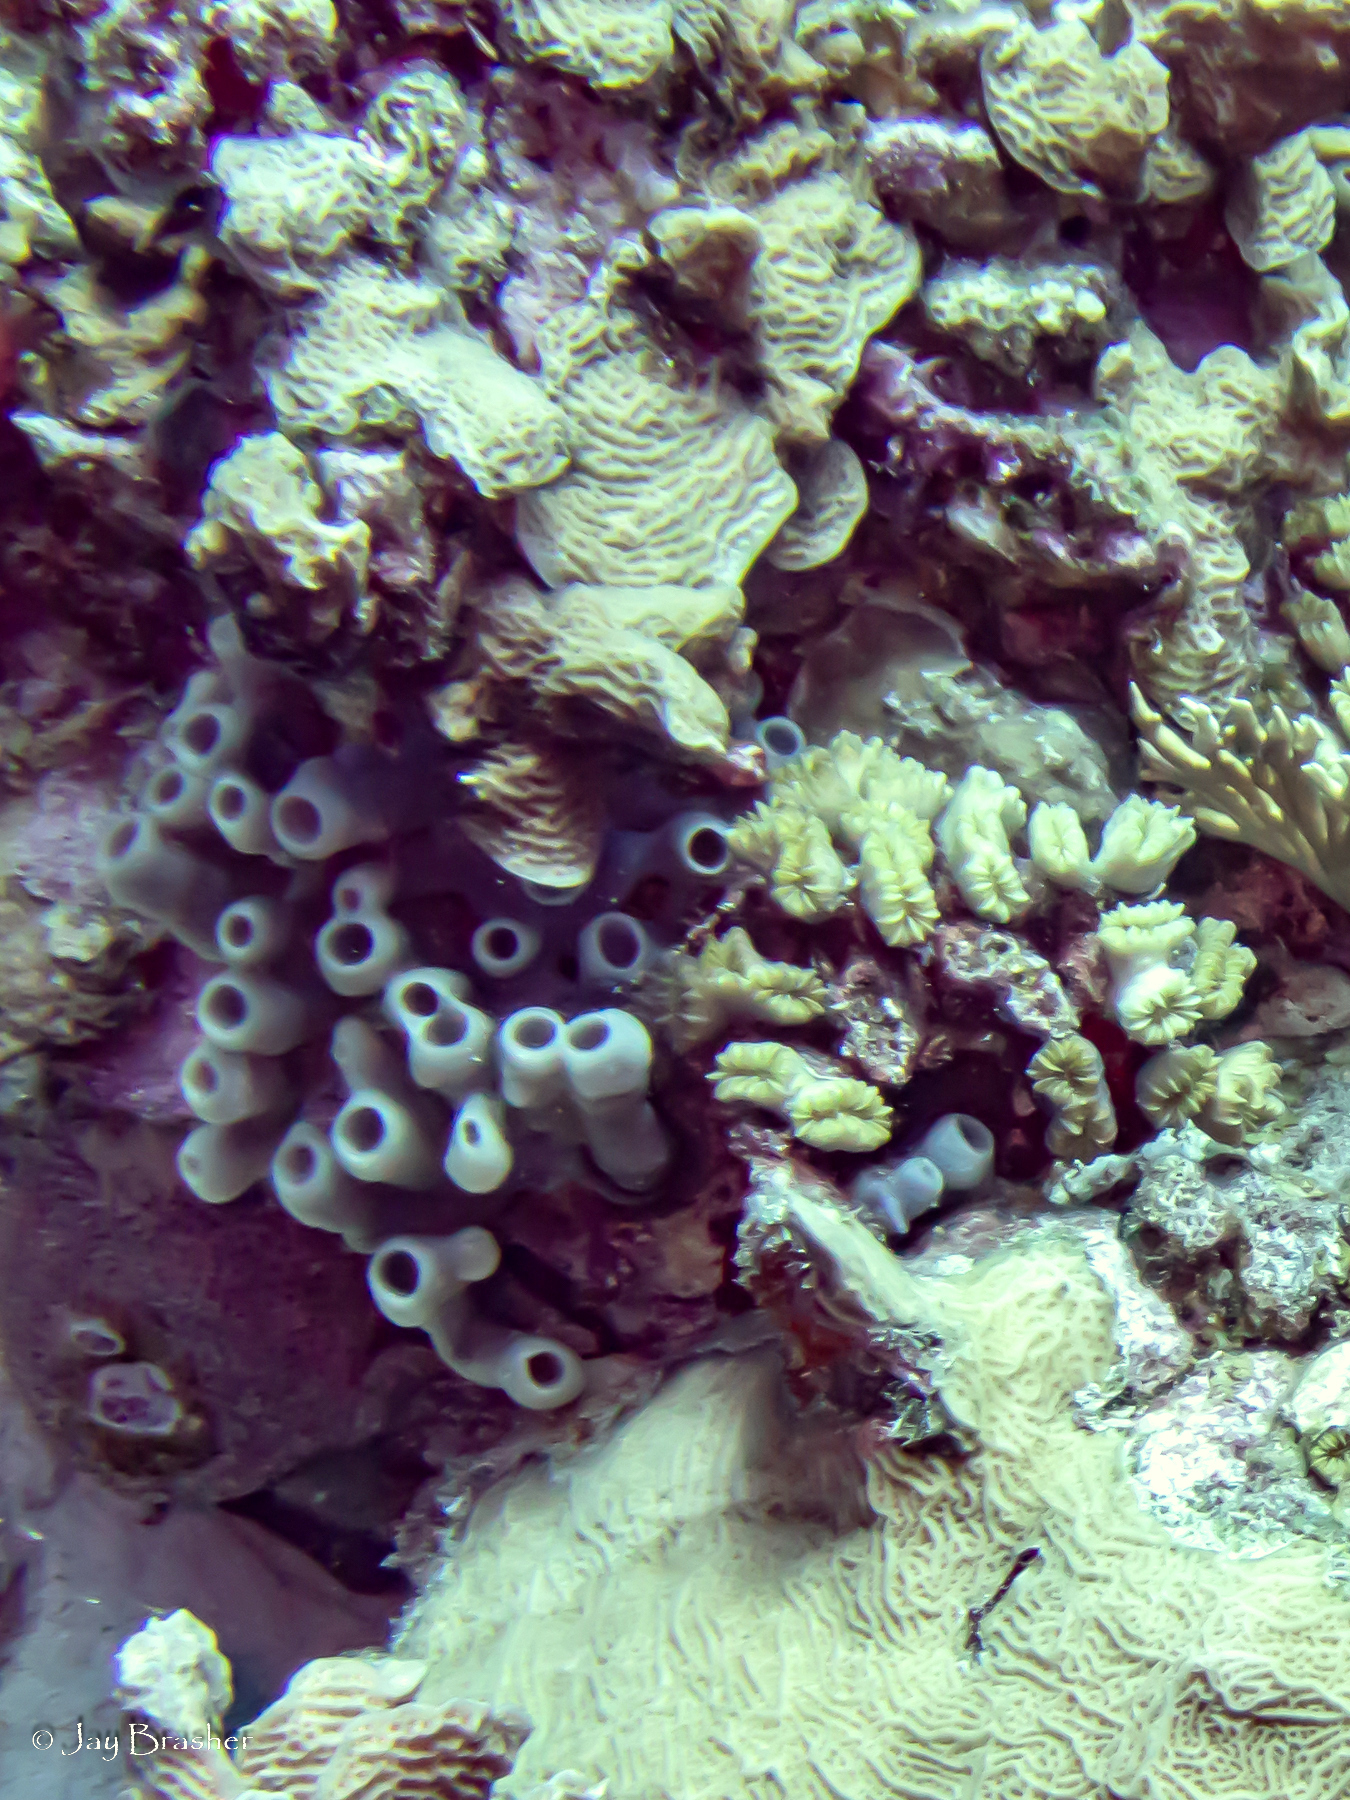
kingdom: Animalia
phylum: Porifera
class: Demospongiae
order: Haplosclerida
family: Callyspongiidae
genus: Callyspongia
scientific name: Callyspongia fallax
